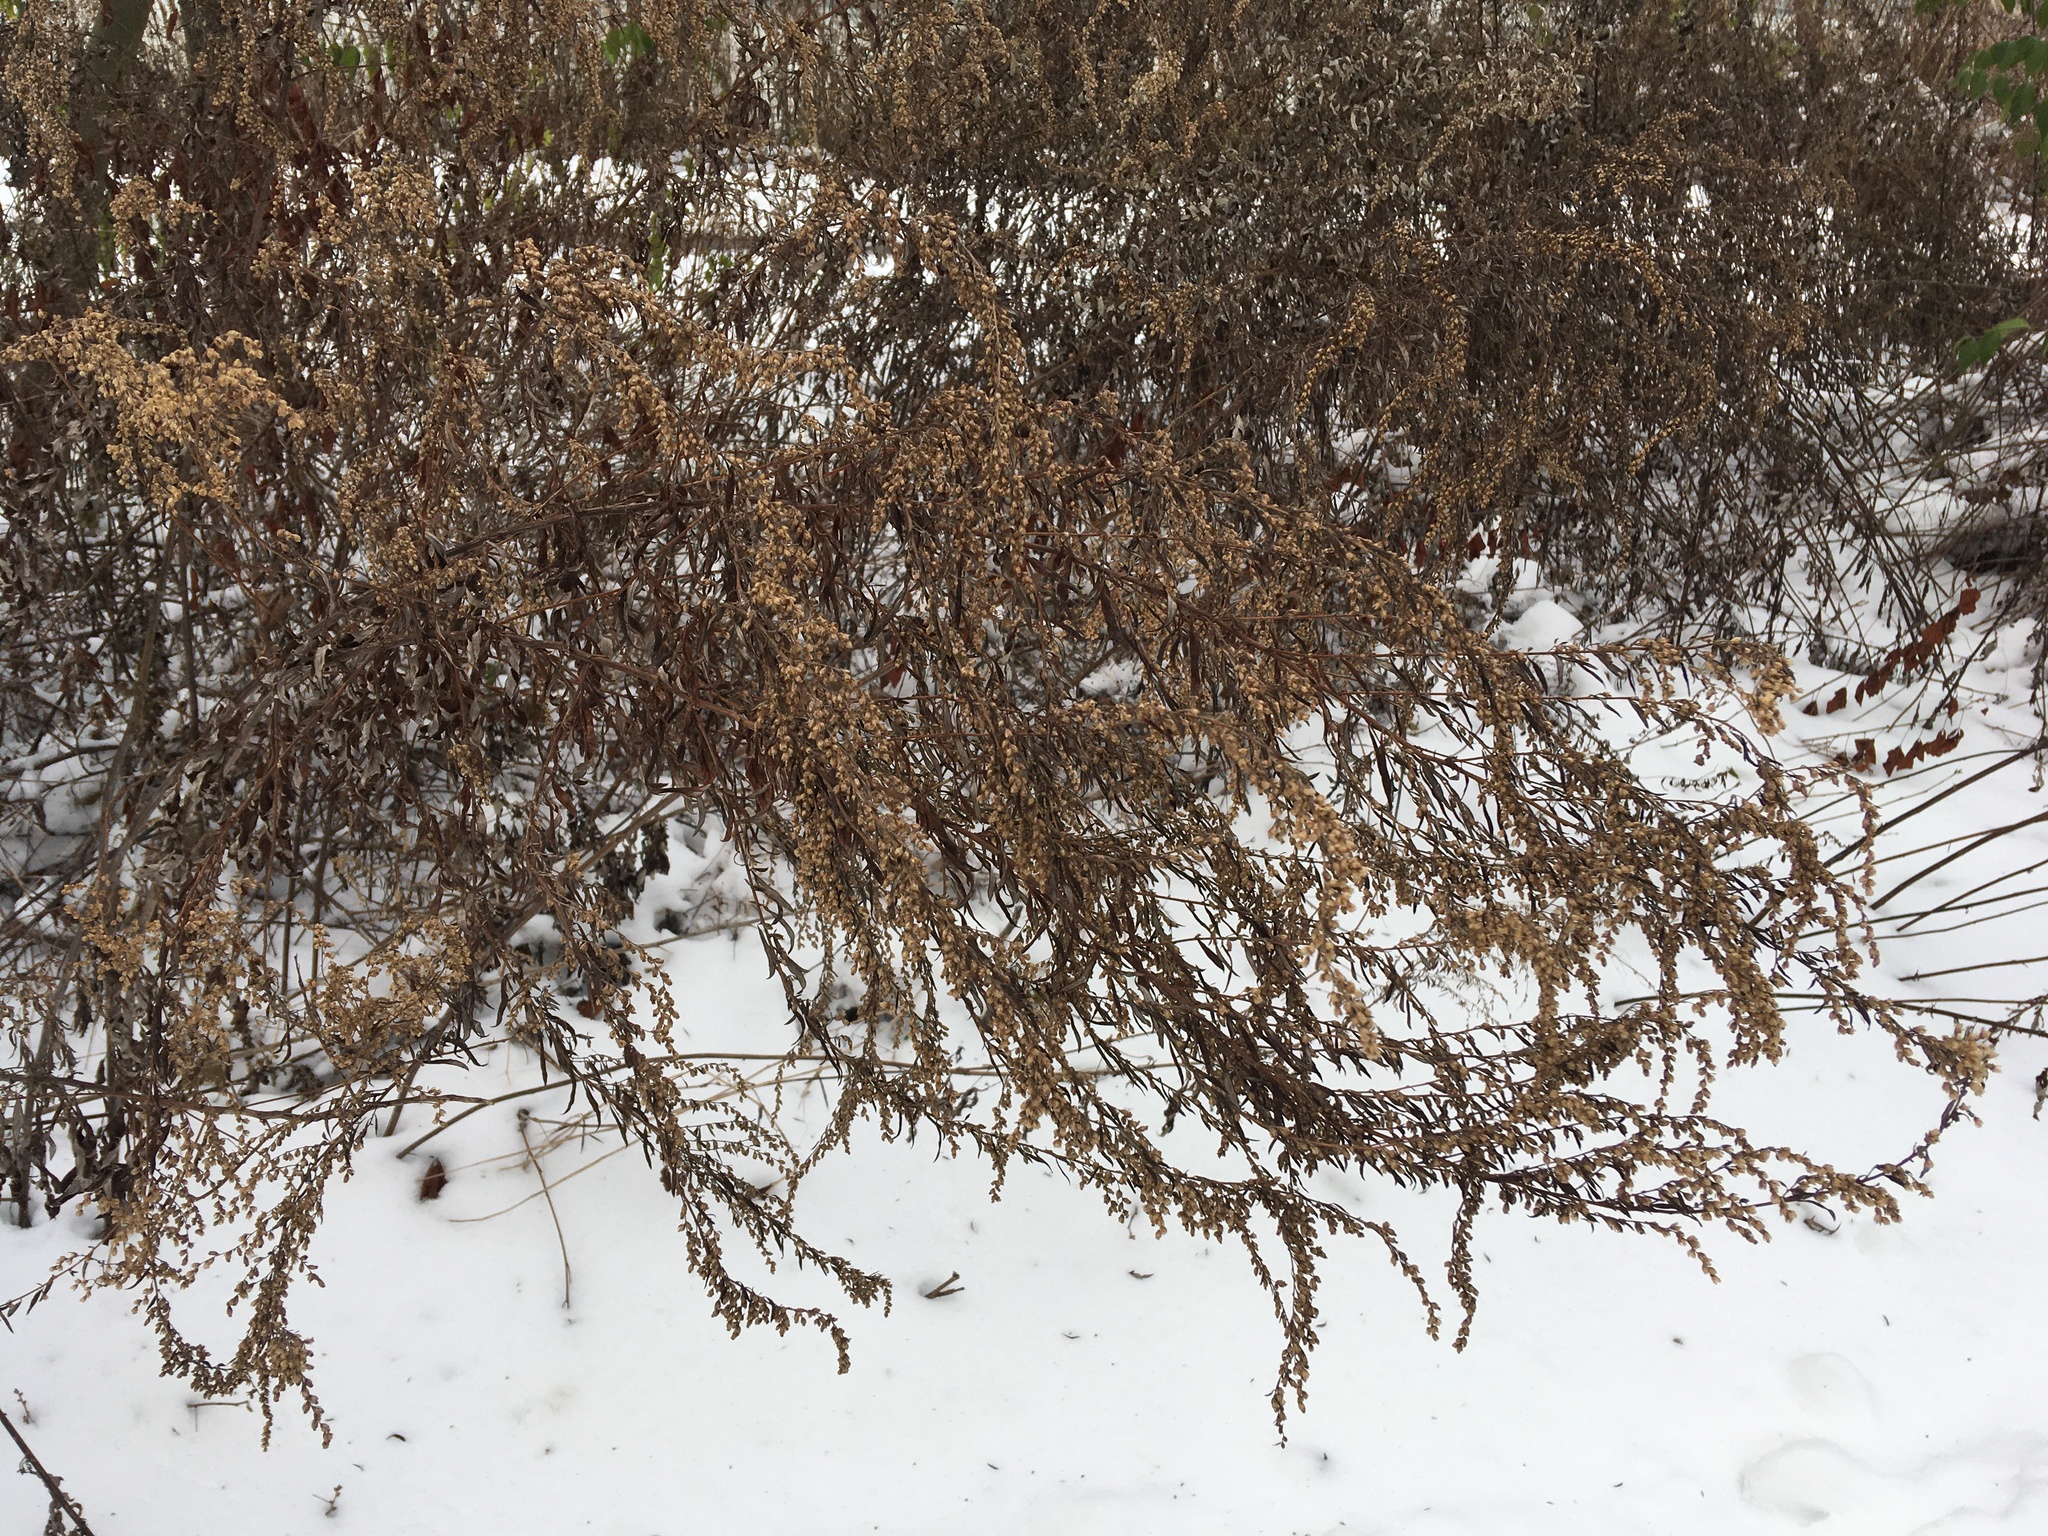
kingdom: Plantae
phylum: Tracheophyta
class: Magnoliopsida
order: Asterales
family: Asteraceae
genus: Artemisia
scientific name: Artemisia vulgaris
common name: Mugwort
